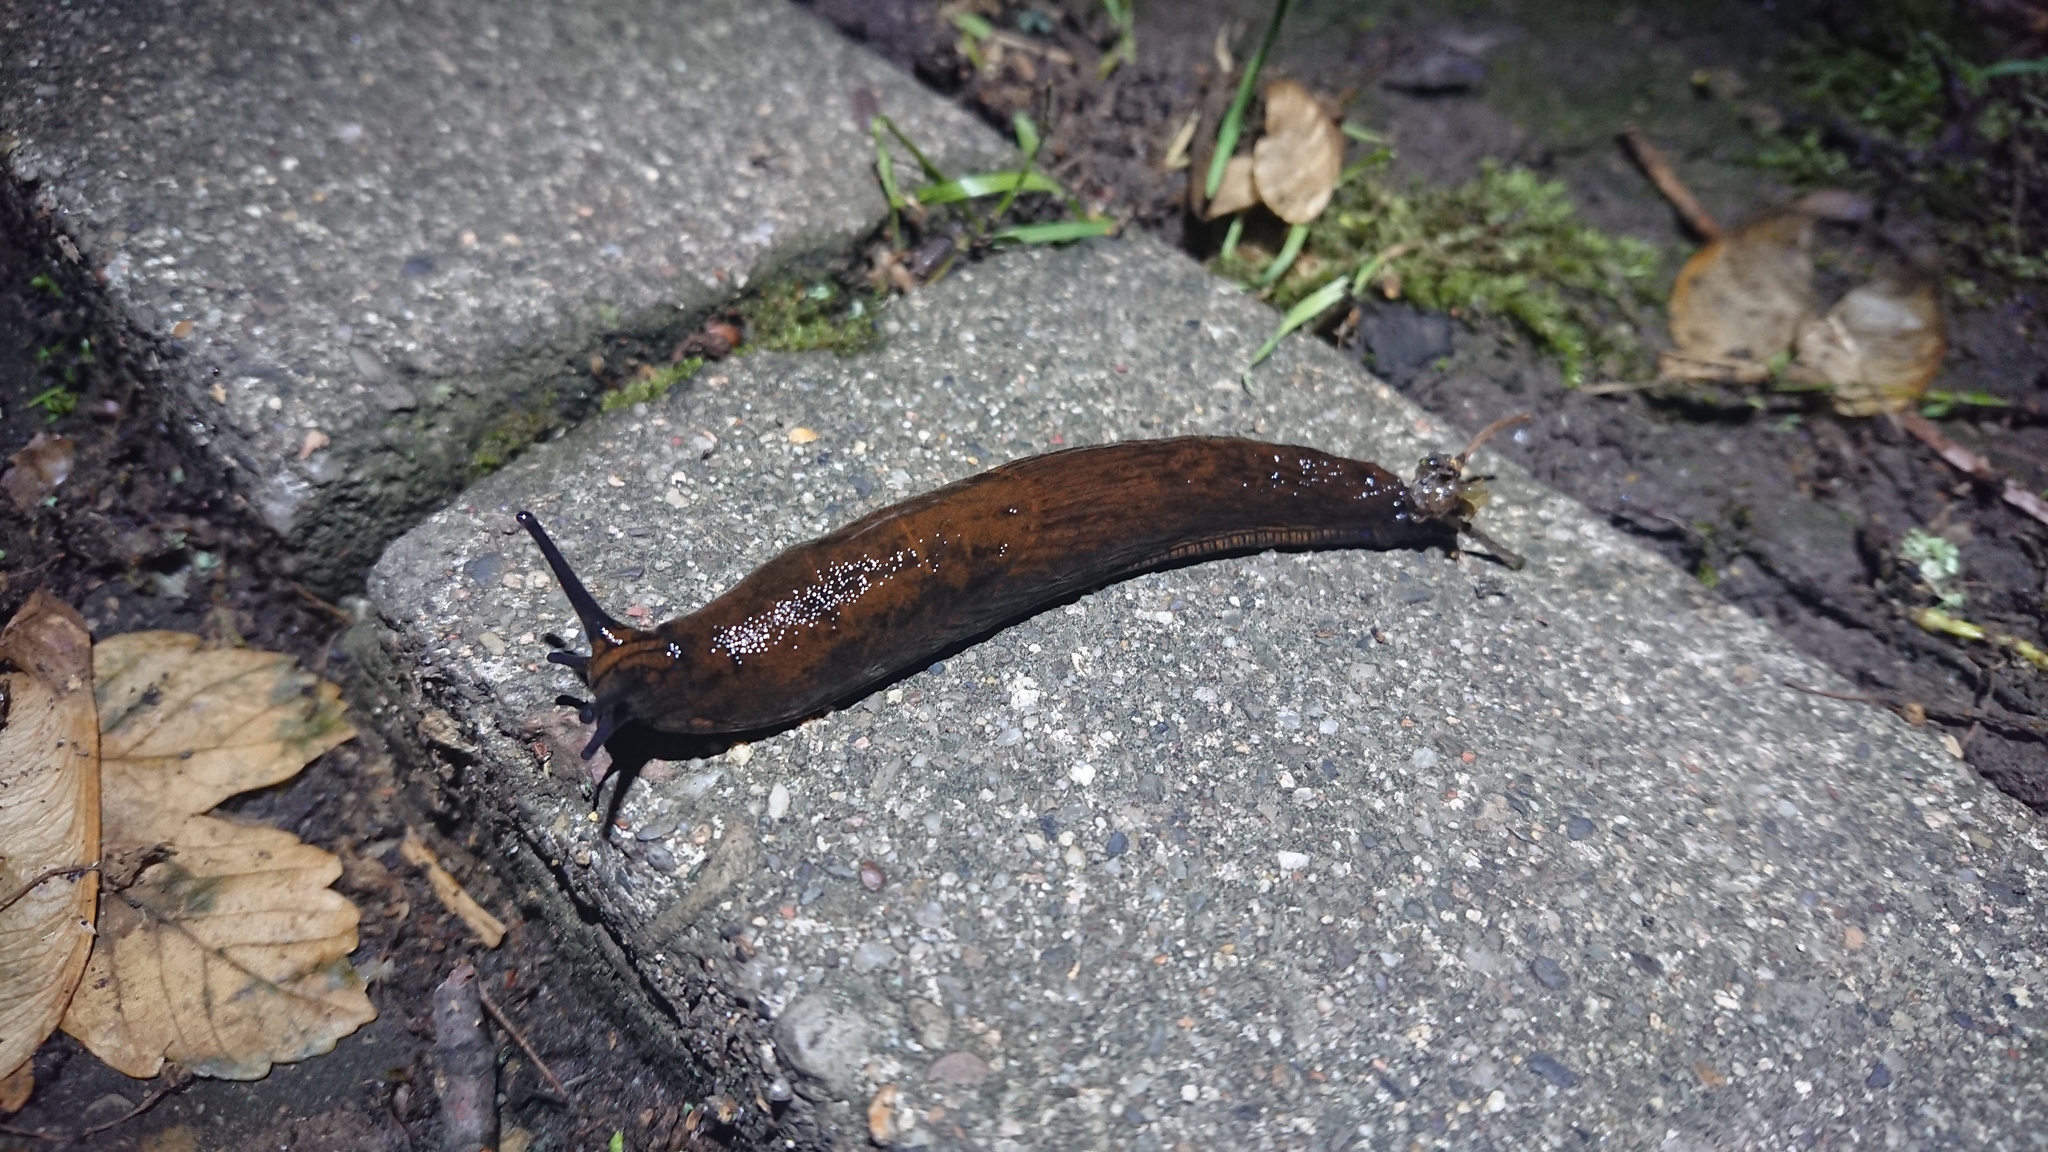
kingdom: Animalia
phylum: Mollusca
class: Gastropoda
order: Stylommatophora
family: Arionidae
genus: Arion
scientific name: Arion rufus
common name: Chocolate arion
